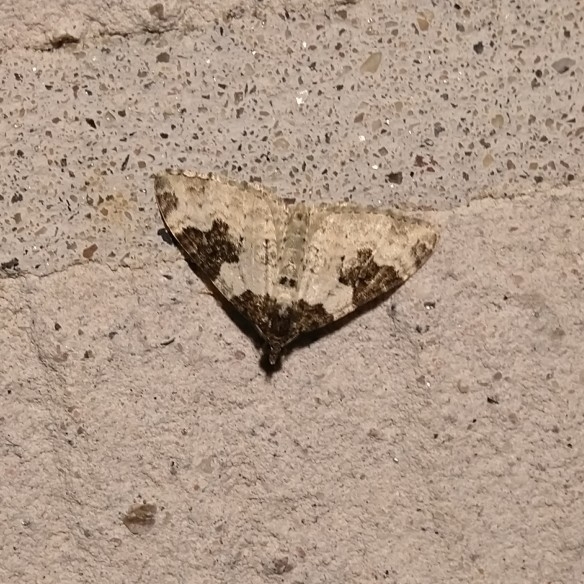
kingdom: Animalia
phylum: Arthropoda
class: Insecta
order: Lepidoptera
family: Geometridae
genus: Xanthorhoe
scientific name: Xanthorhoe fluctuata
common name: Garden carpet
